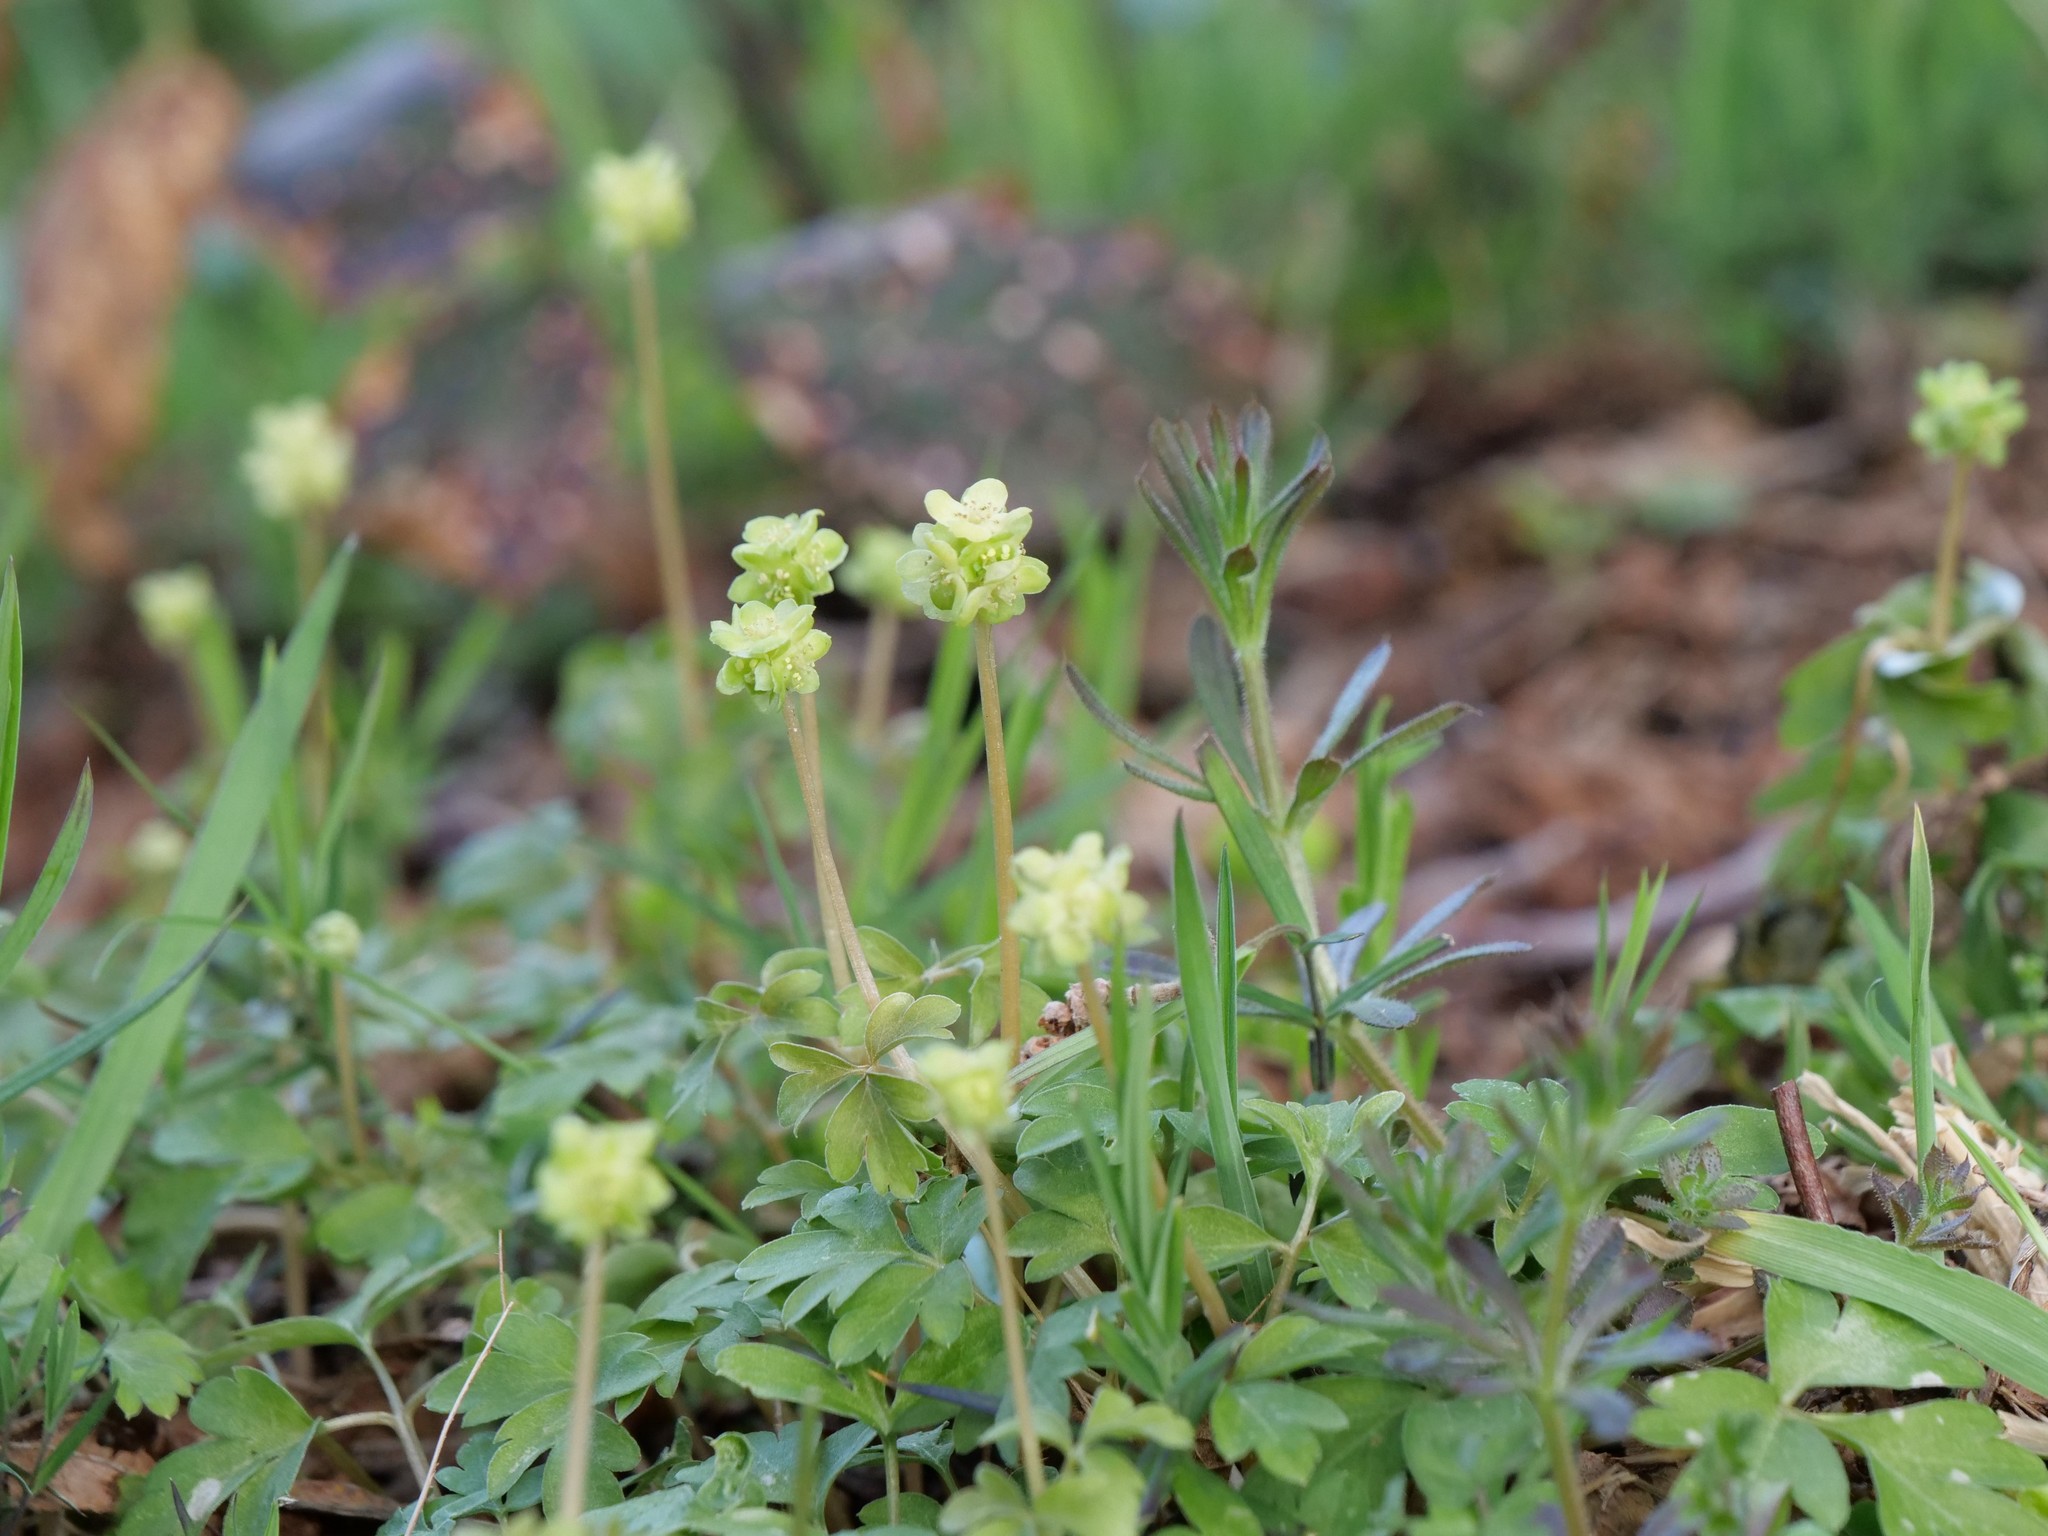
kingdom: Plantae
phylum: Tracheophyta
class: Magnoliopsida
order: Dipsacales
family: Viburnaceae
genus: Adoxa
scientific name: Adoxa moschatellina
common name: Moschatel
